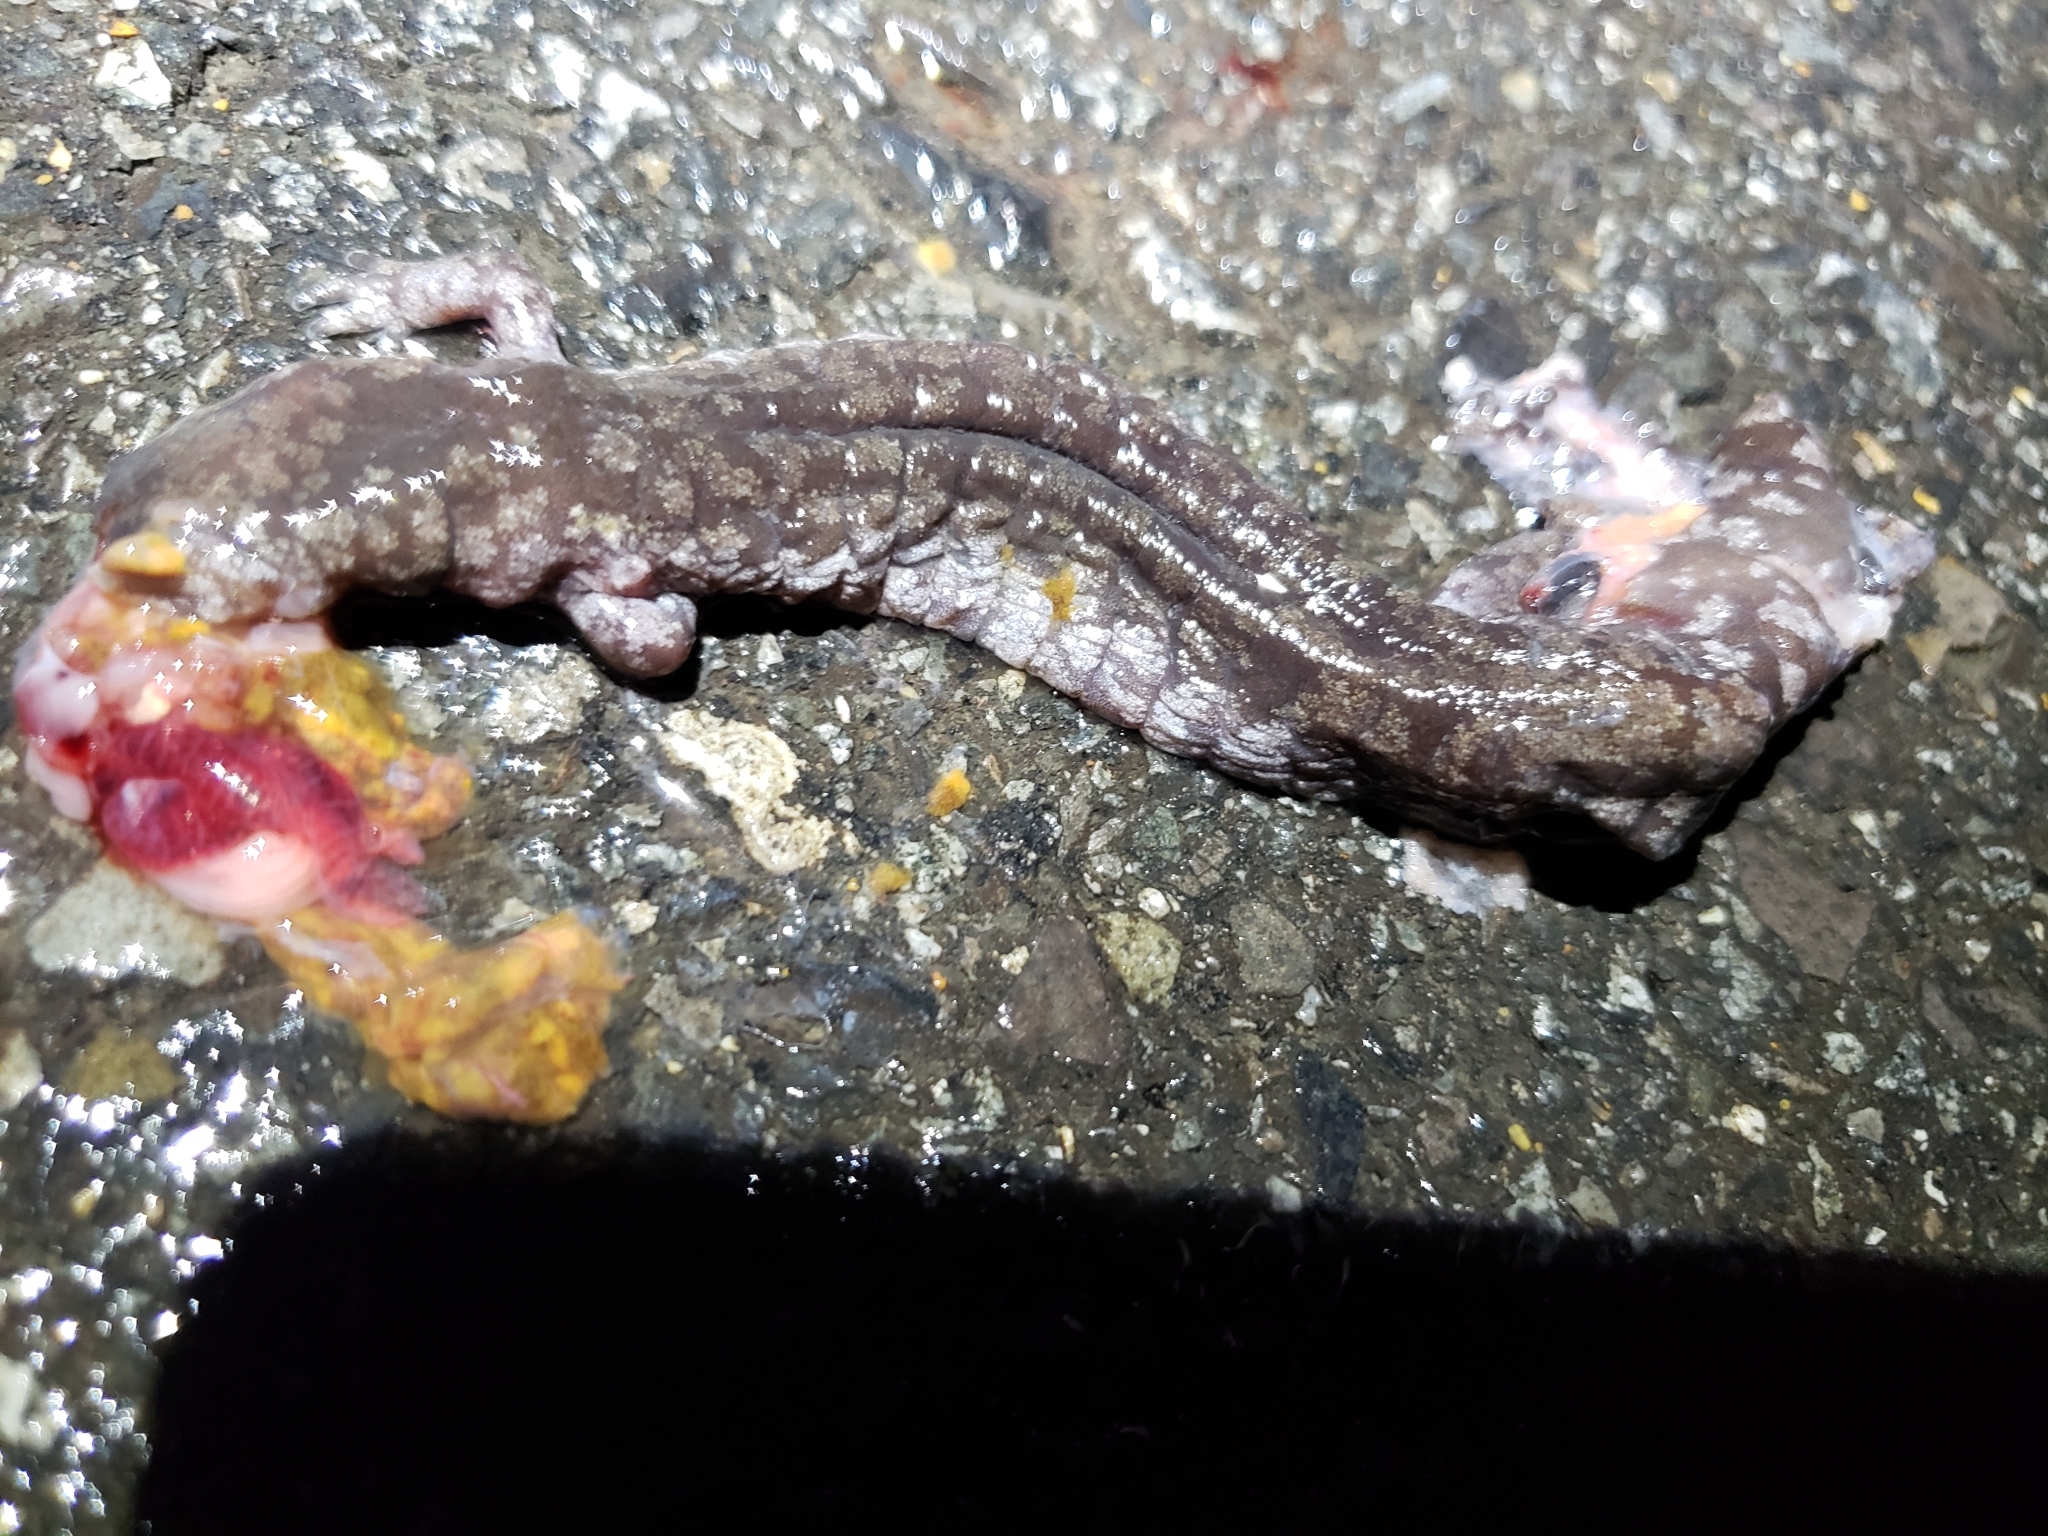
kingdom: Animalia
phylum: Chordata
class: Amphibia
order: Caudata
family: Ambystomatidae
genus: Ambystoma
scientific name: Ambystoma texanum
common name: Small-mouth salamander
